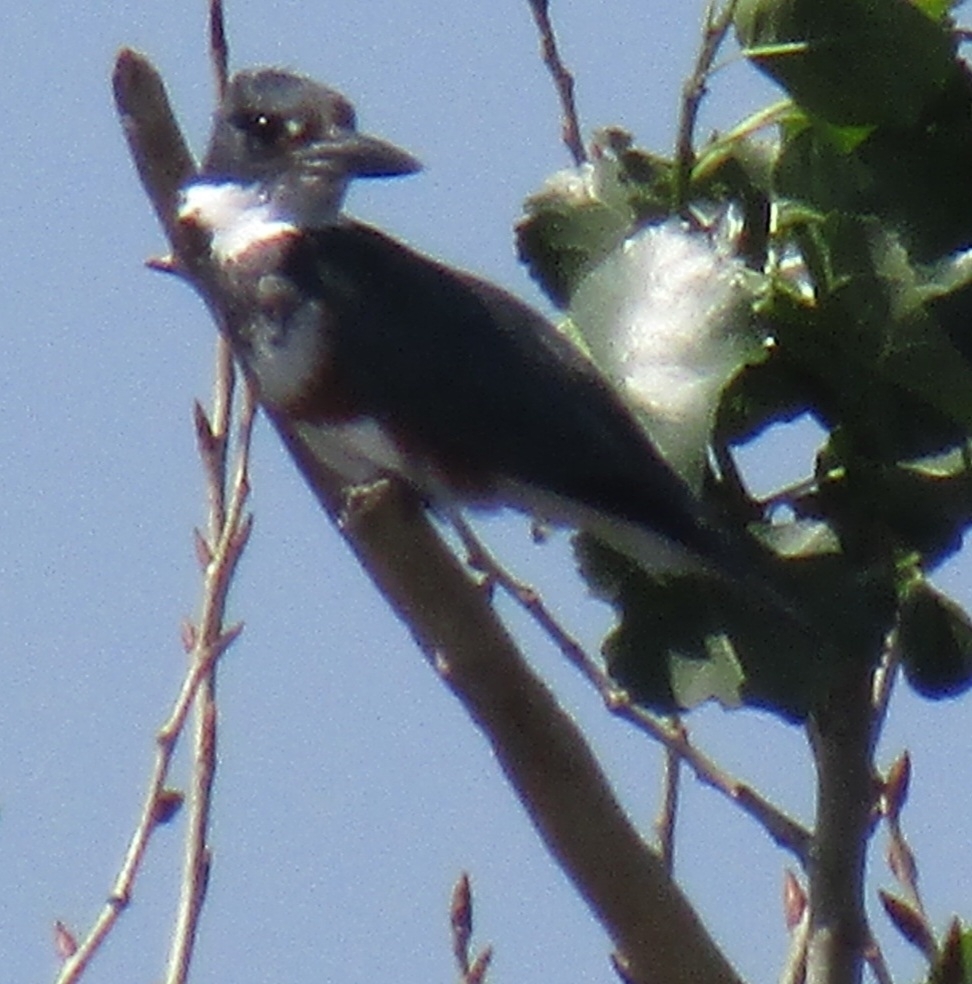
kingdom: Animalia
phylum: Chordata
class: Aves
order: Coraciiformes
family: Alcedinidae
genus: Megaceryle
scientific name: Megaceryle alcyon
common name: Belted kingfisher
